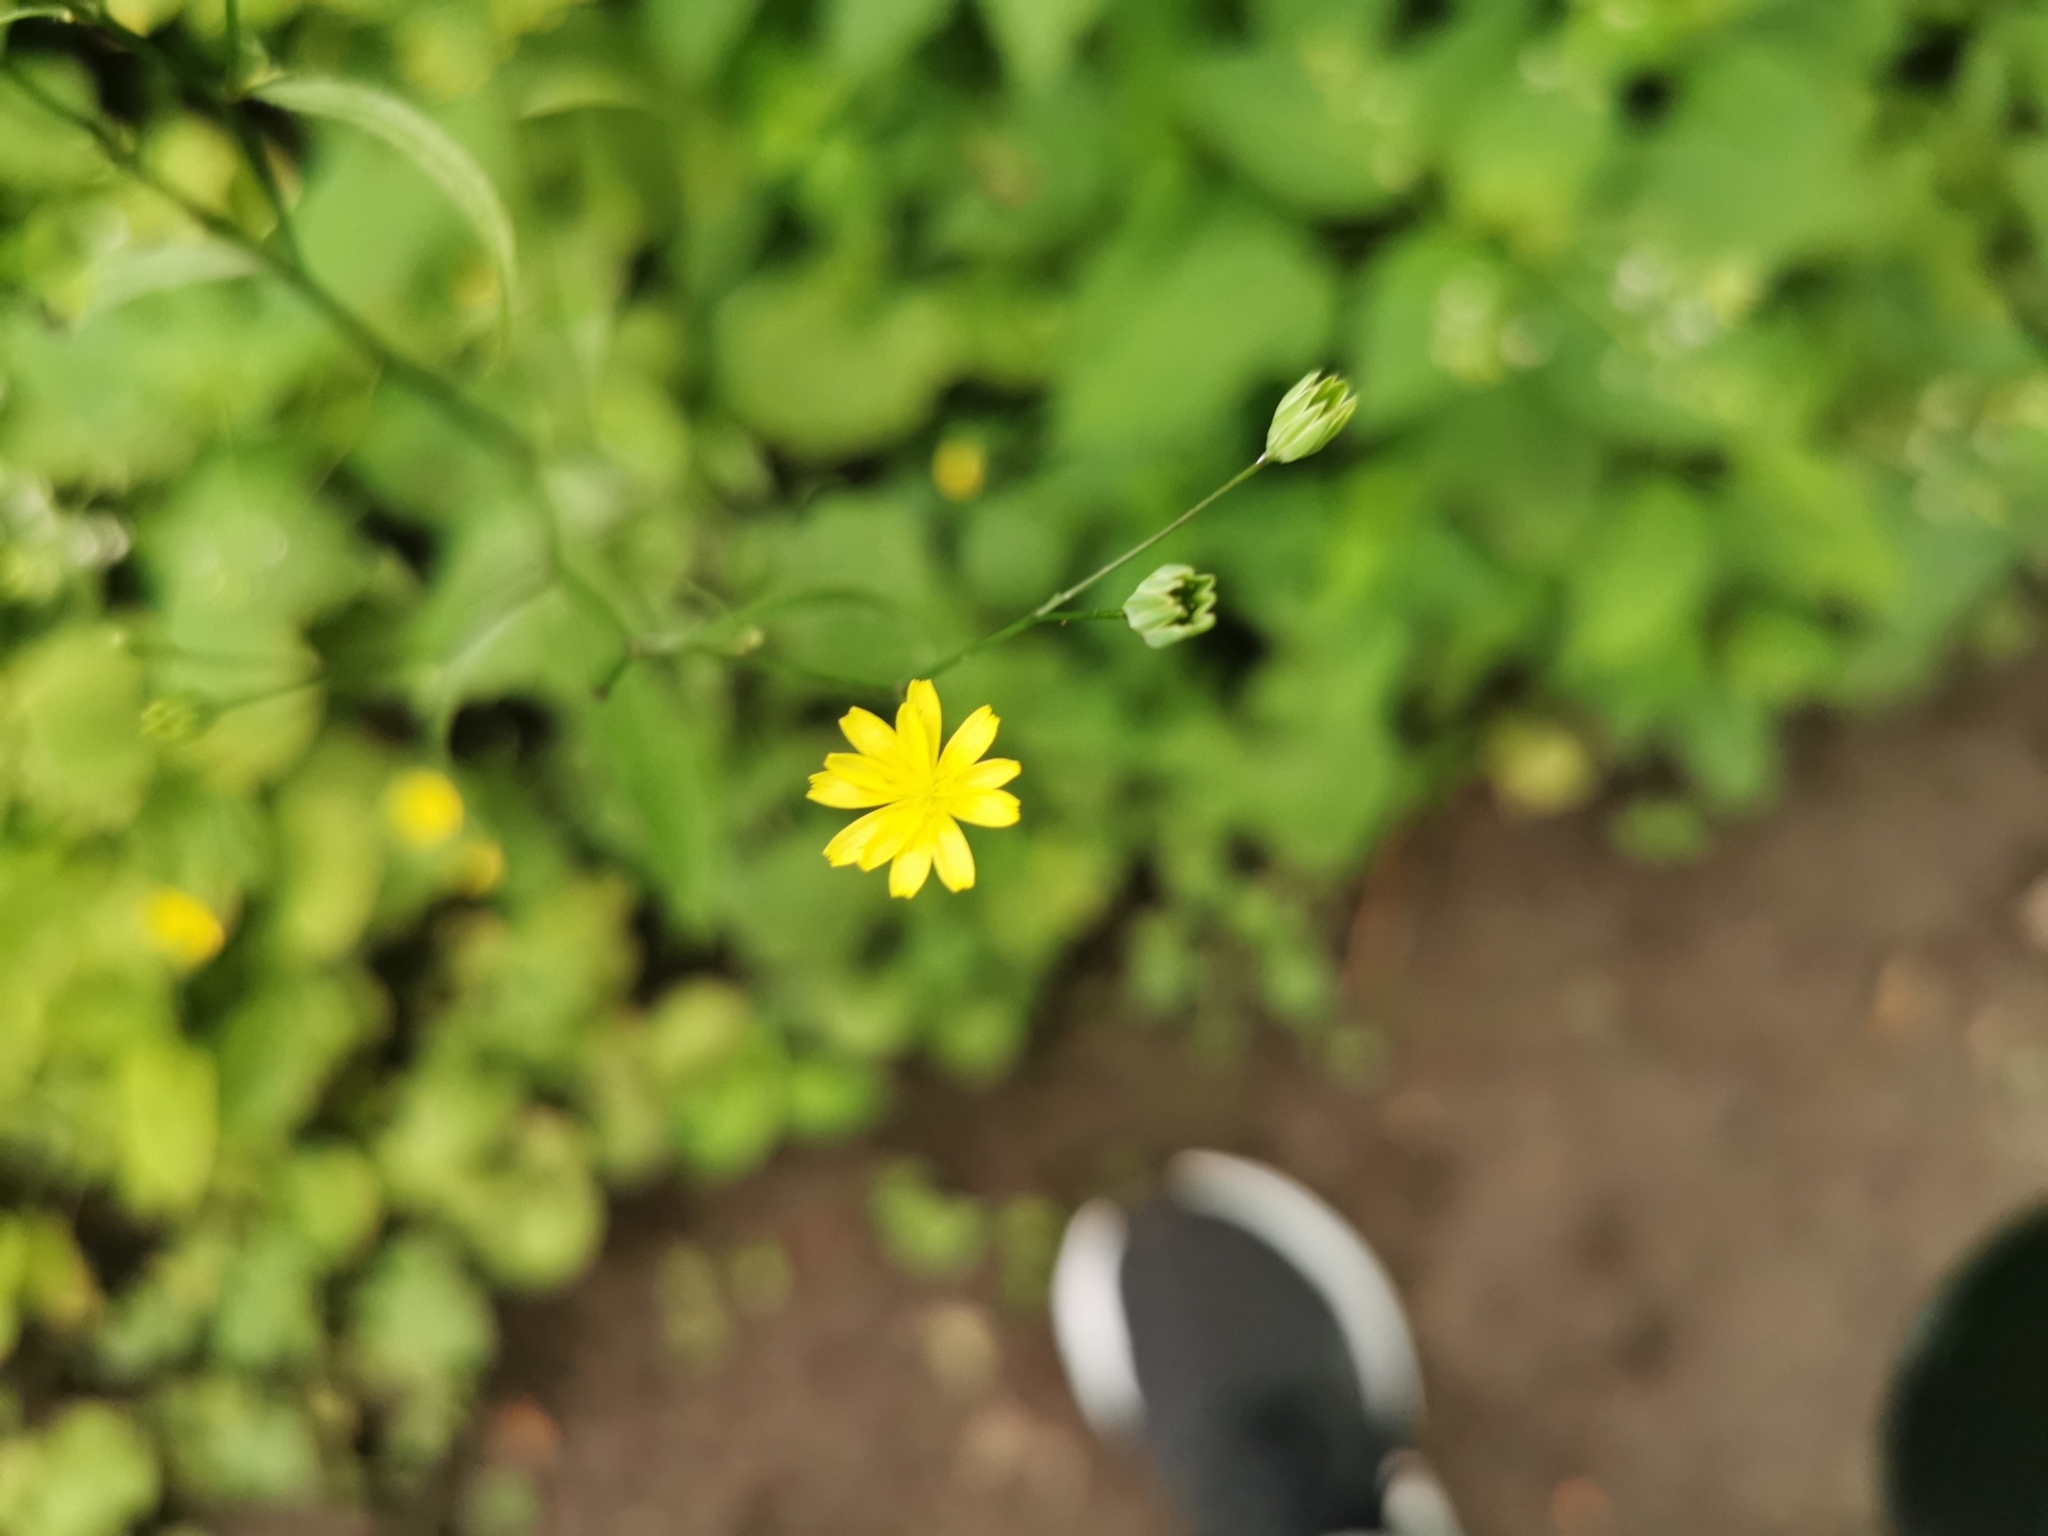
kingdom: Plantae
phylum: Tracheophyta
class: Magnoliopsida
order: Asterales
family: Asteraceae
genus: Lapsana
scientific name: Lapsana communis
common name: Nipplewort
